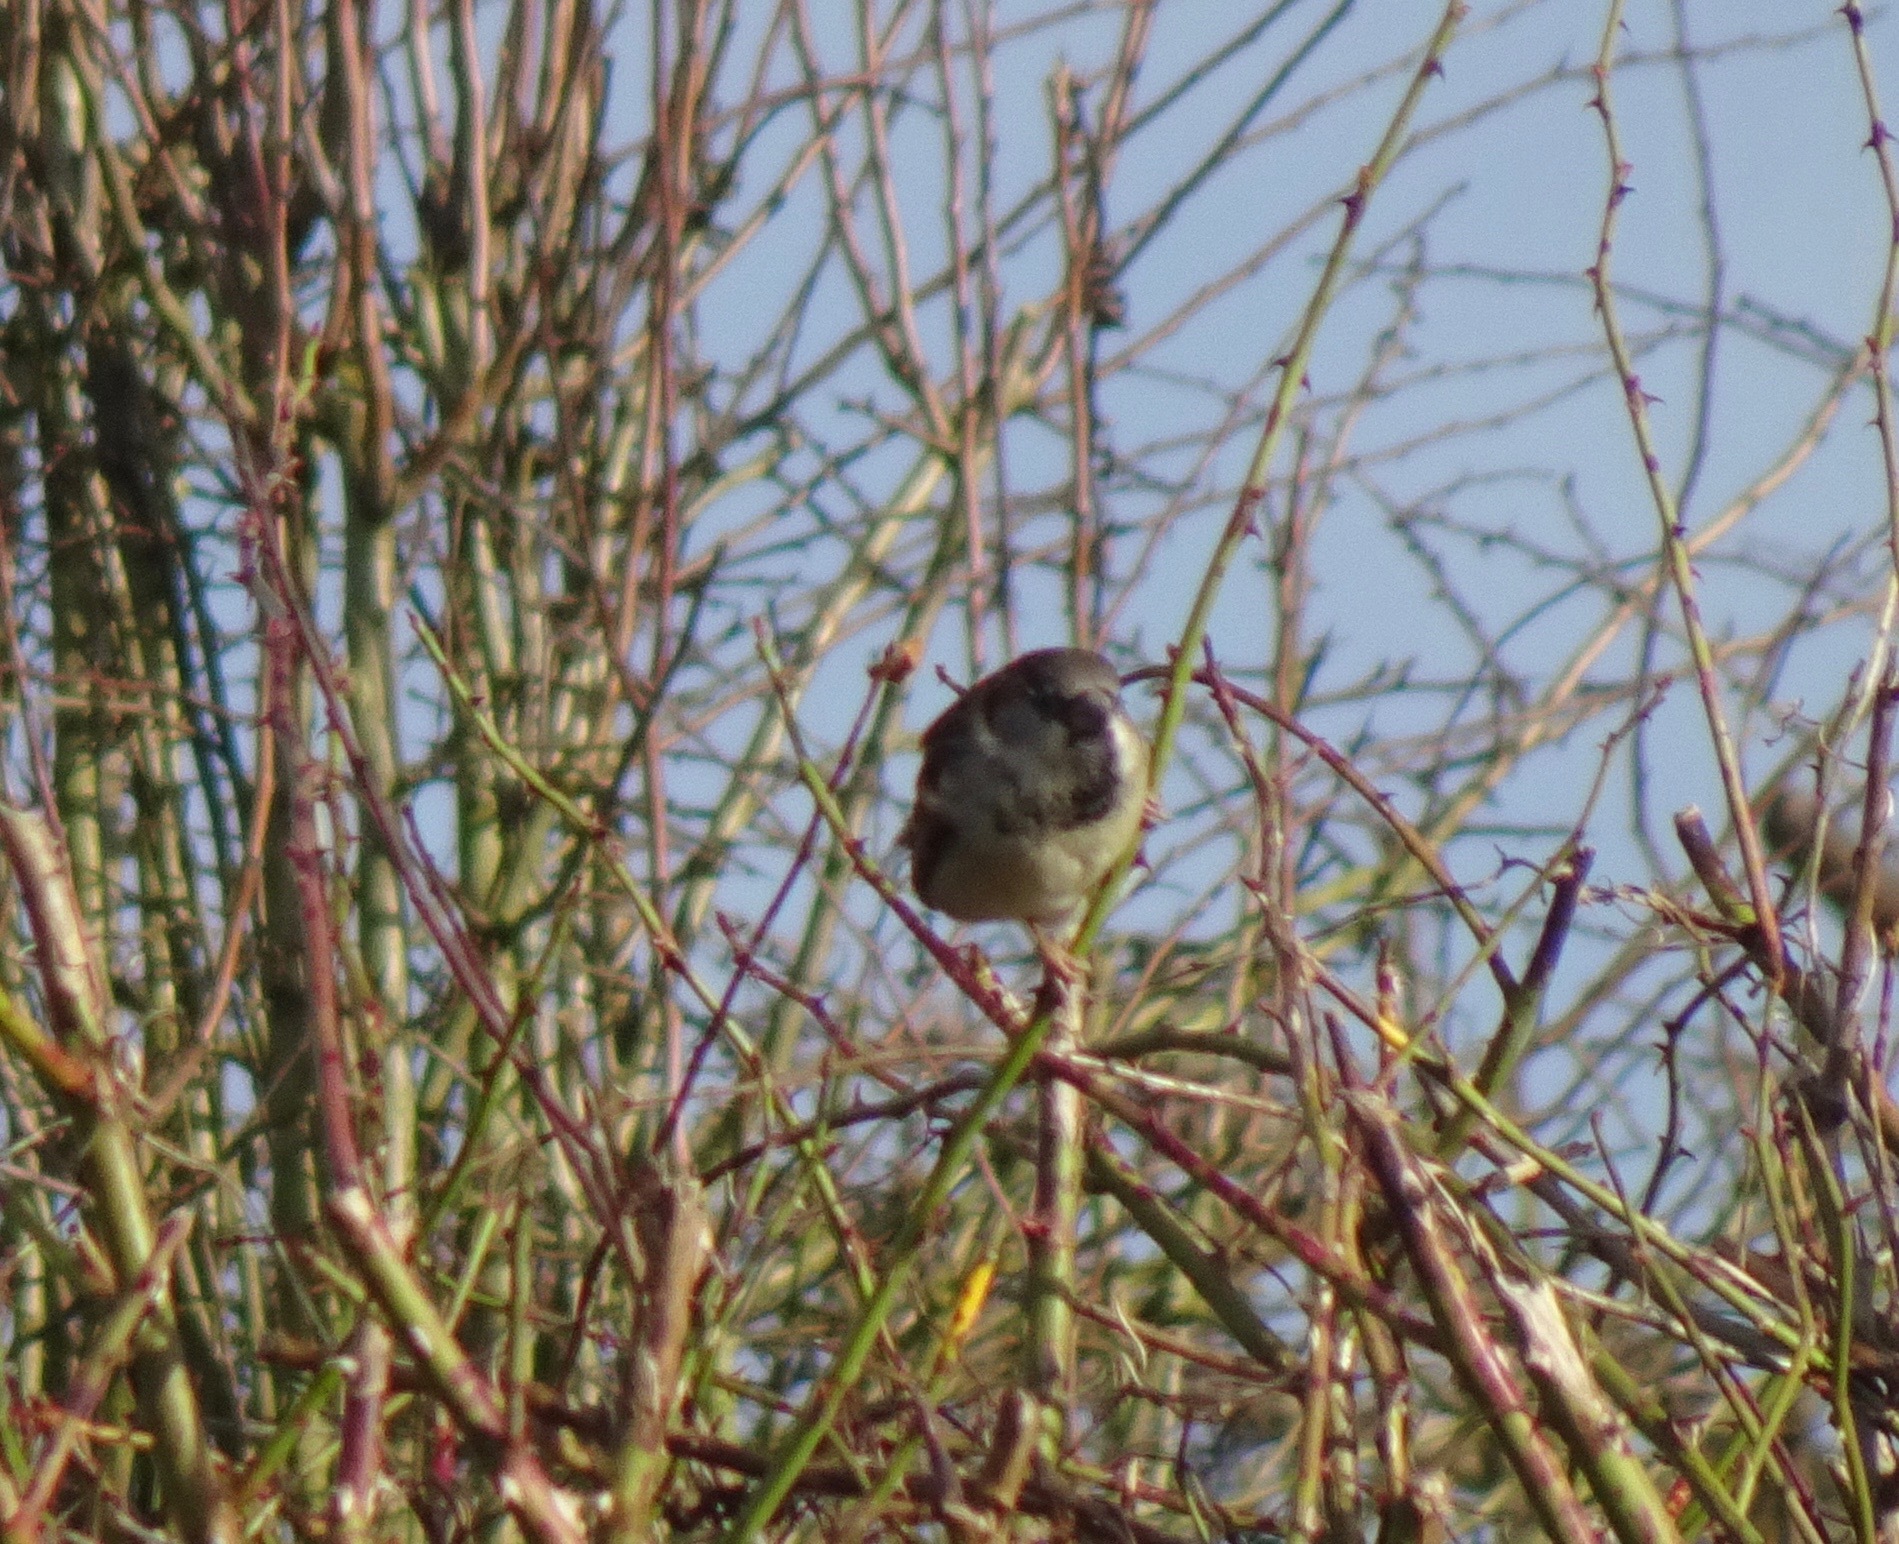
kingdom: Animalia
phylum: Chordata
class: Aves
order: Passeriformes
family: Passeridae
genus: Passer
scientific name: Passer domesticus
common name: House sparrow
